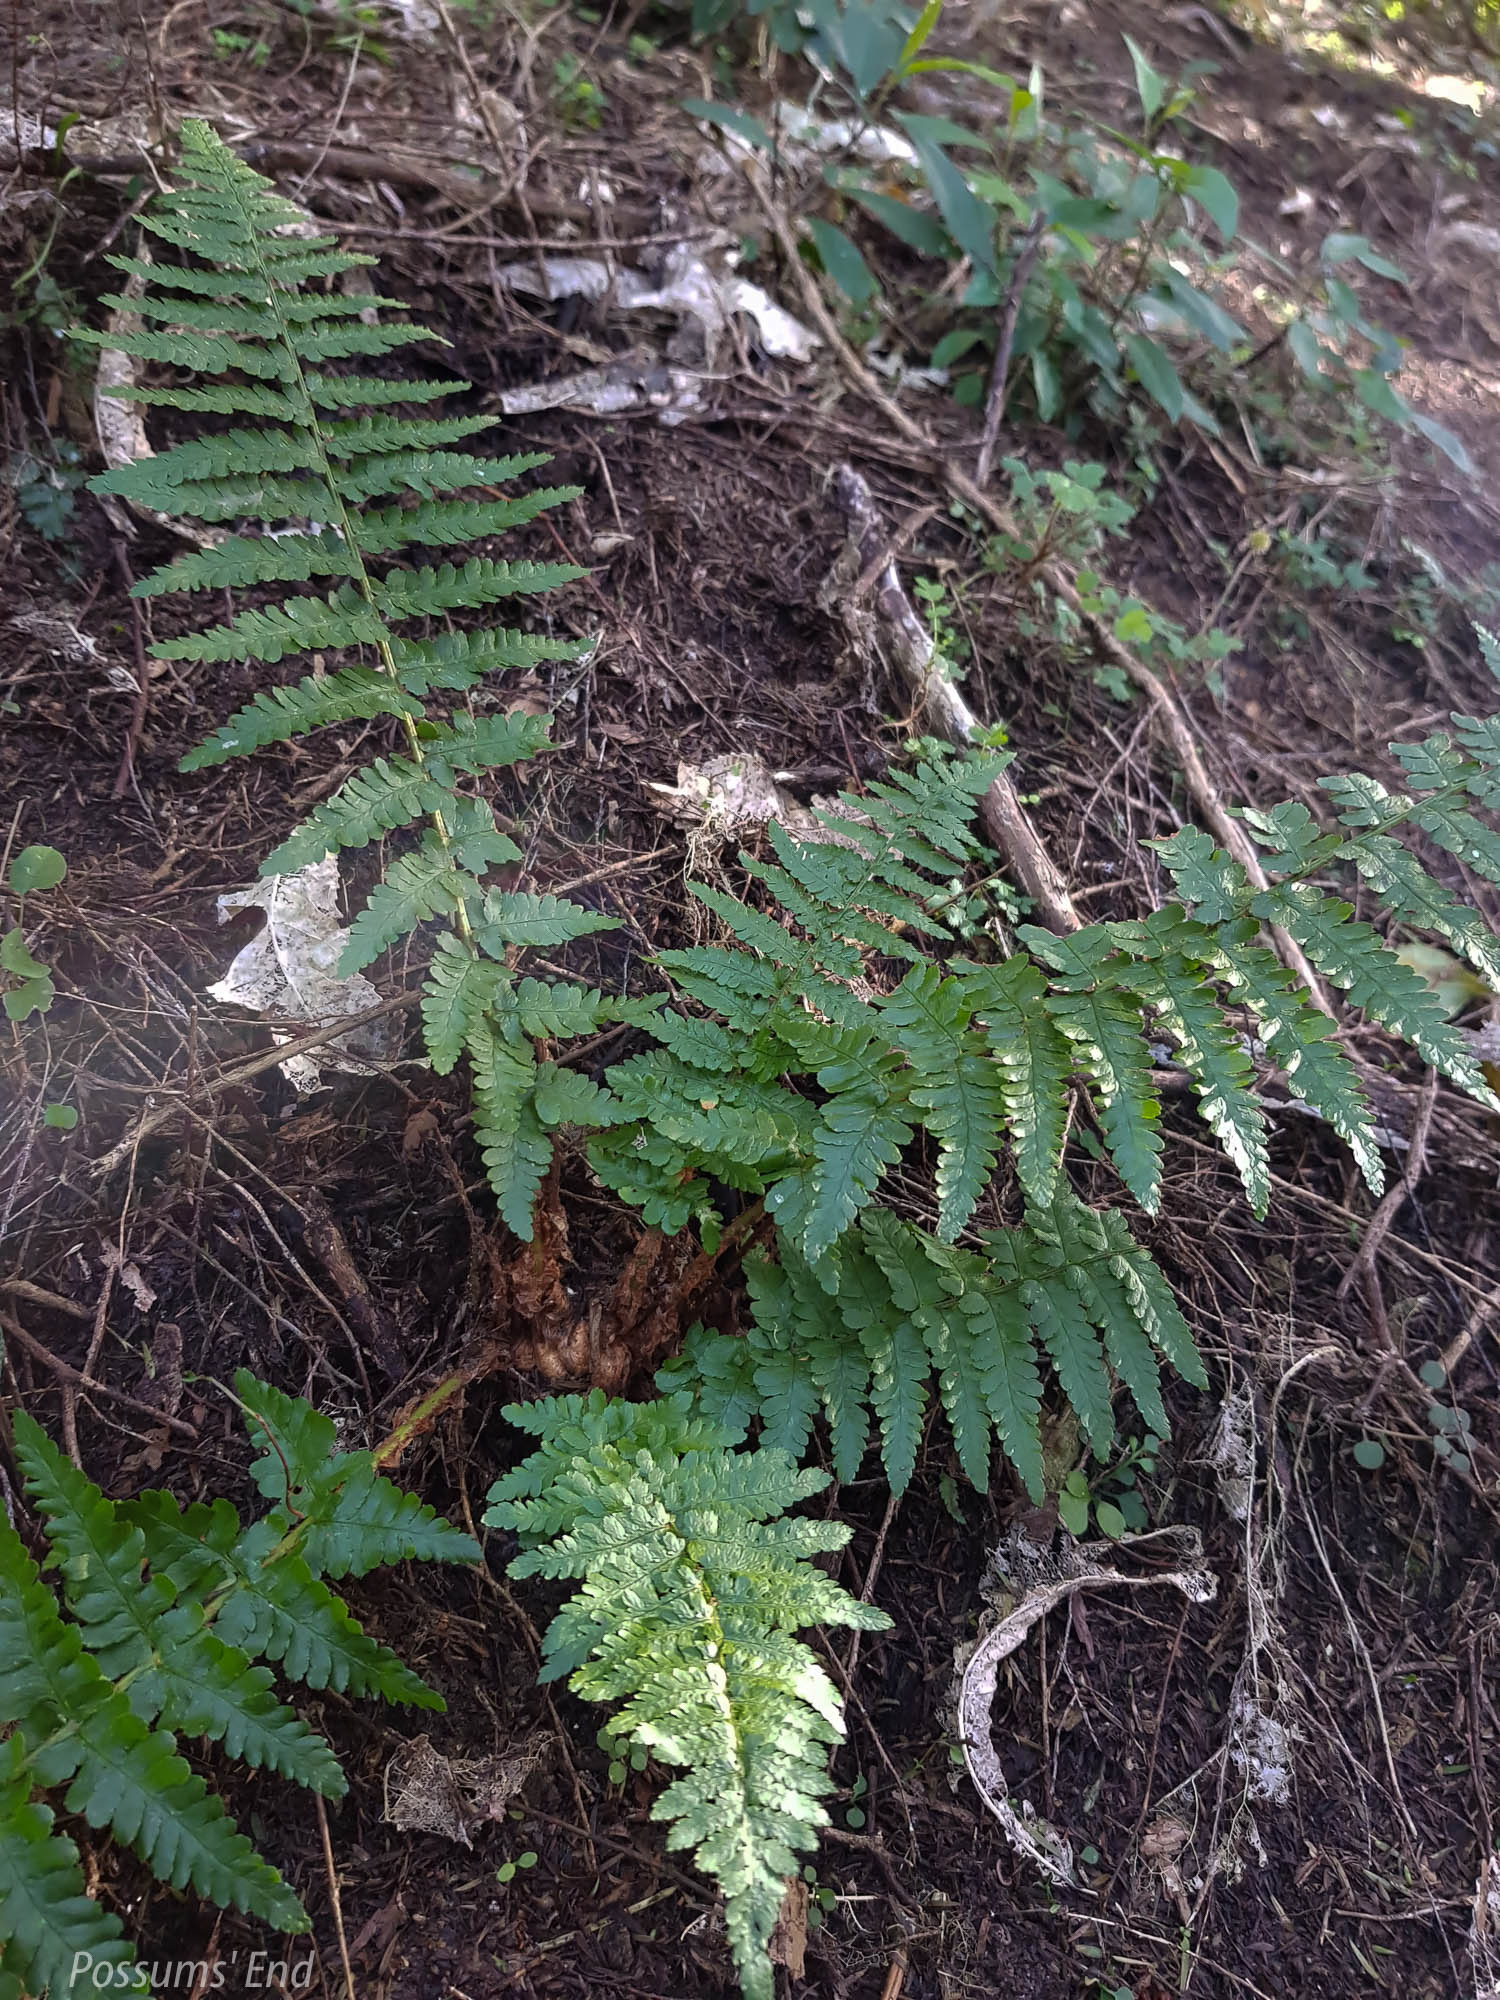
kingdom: Plantae
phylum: Tracheophyta
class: Polypodiopsida
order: Polypodiales
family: Dryopteridaceae
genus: Dryopteris
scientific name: Dryopteris filix-mas
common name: Male fern
